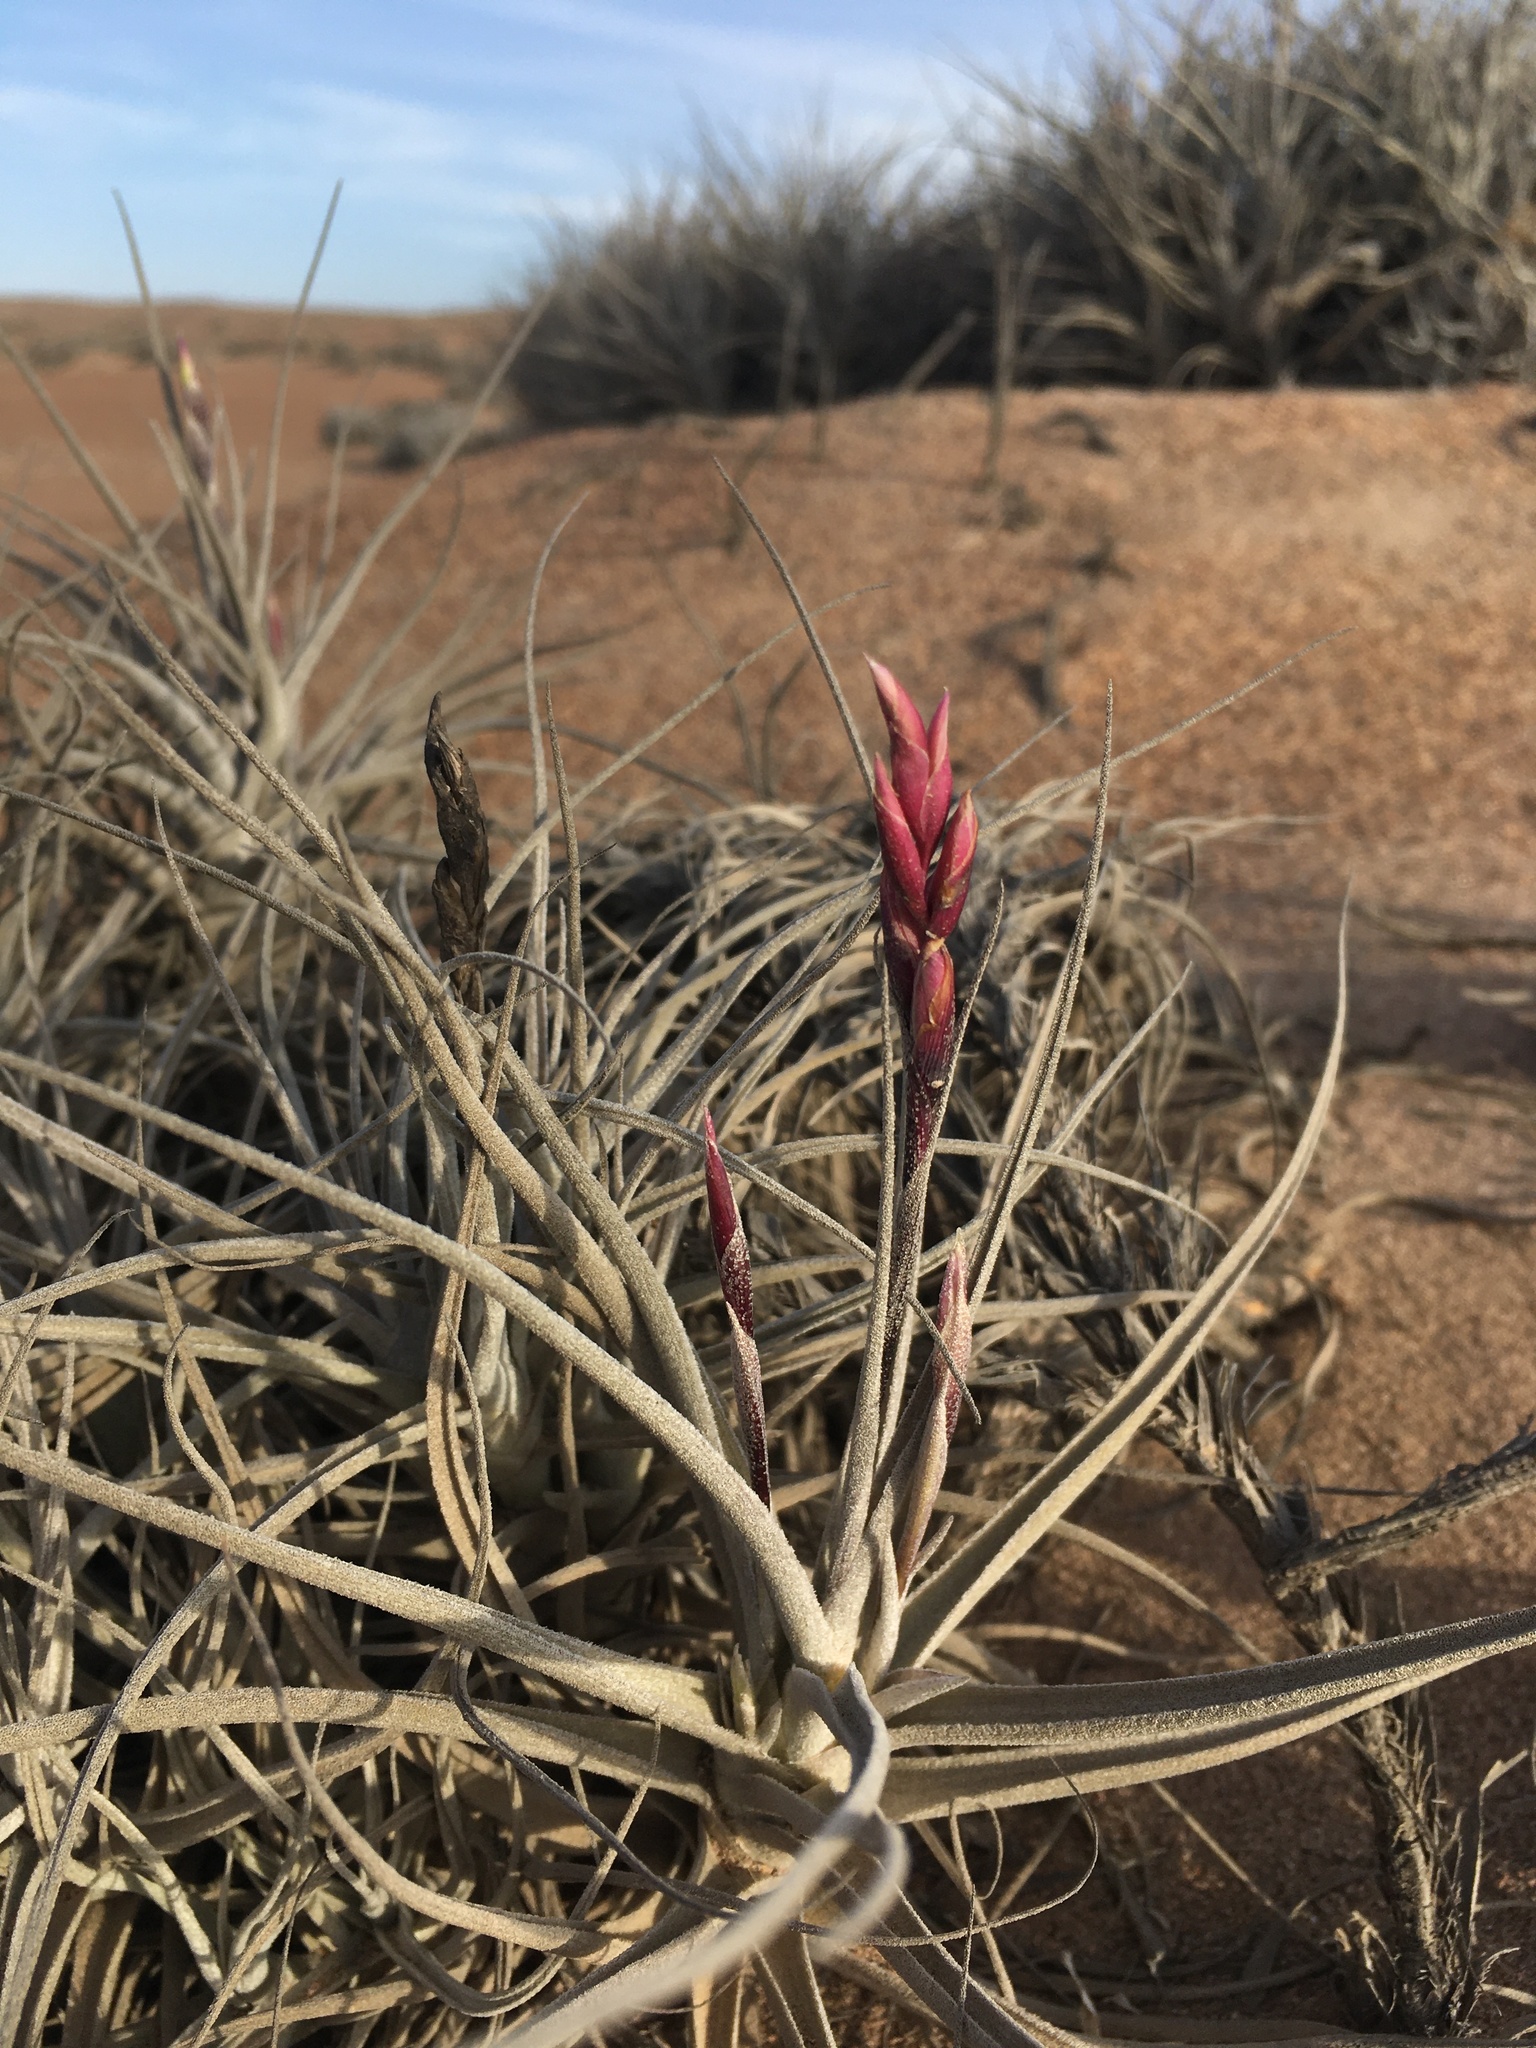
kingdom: Plantae
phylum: Tracheophyta
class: Liliopsida
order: Poales
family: Bromeliaceae
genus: Tillandsia
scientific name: Tillandsia marconae
